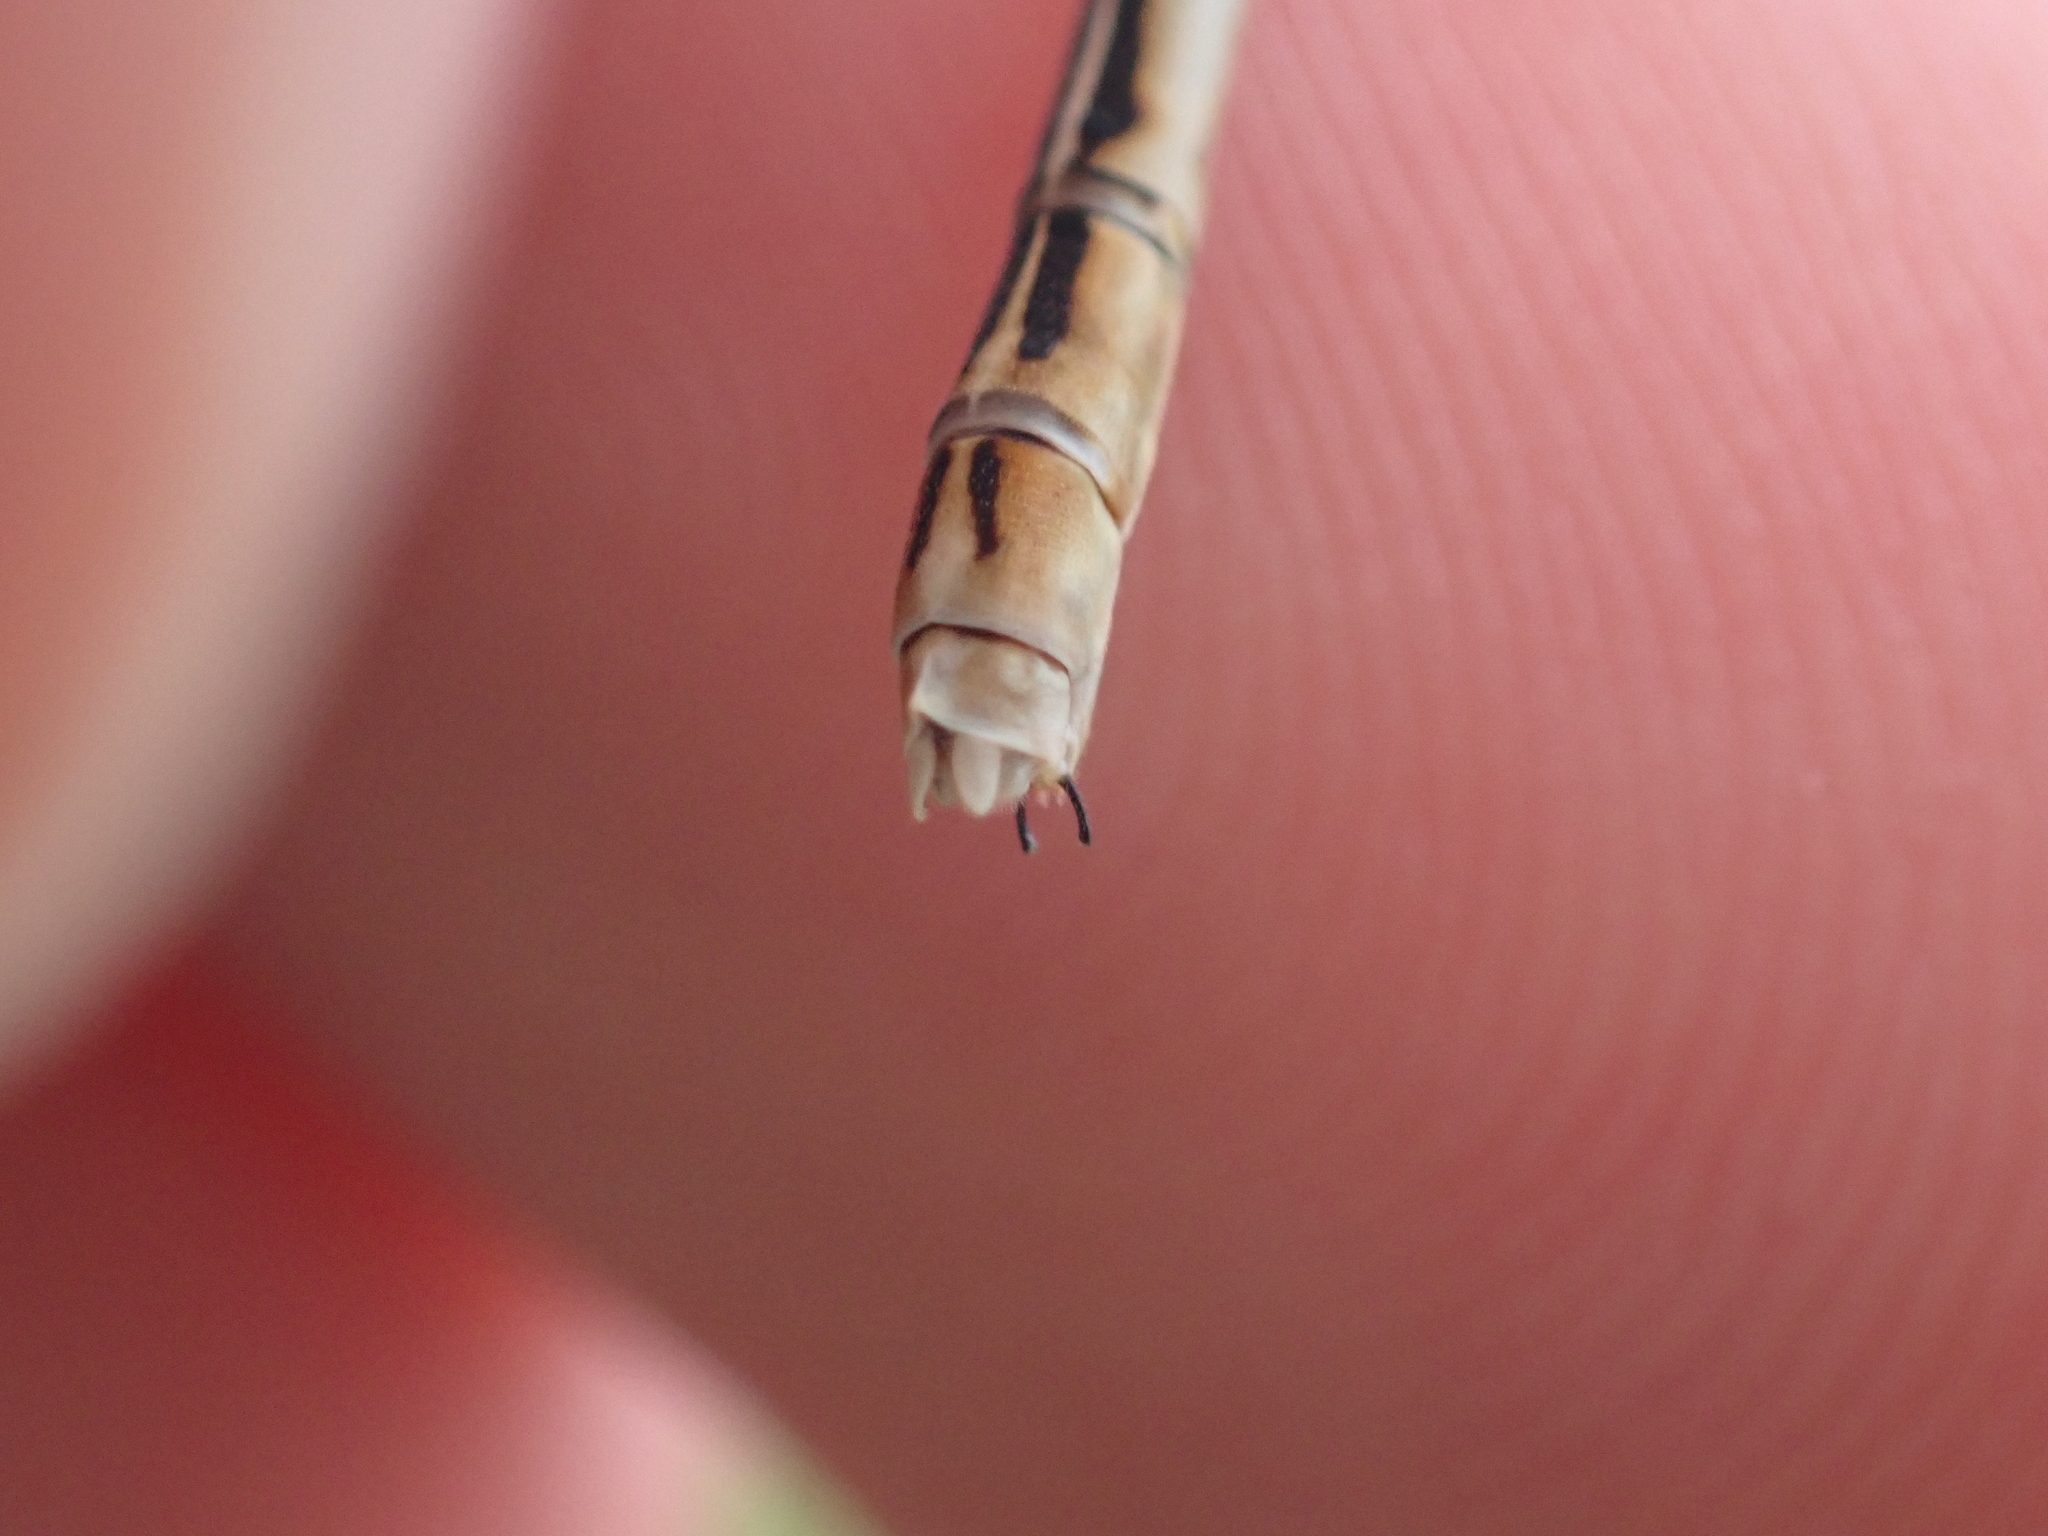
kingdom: Animalia
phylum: Arthropoda
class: Insecta
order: Odonata
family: Platycnemididae
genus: Platycnemis
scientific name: Platycnemis pennipes
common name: White-legged damselfly
